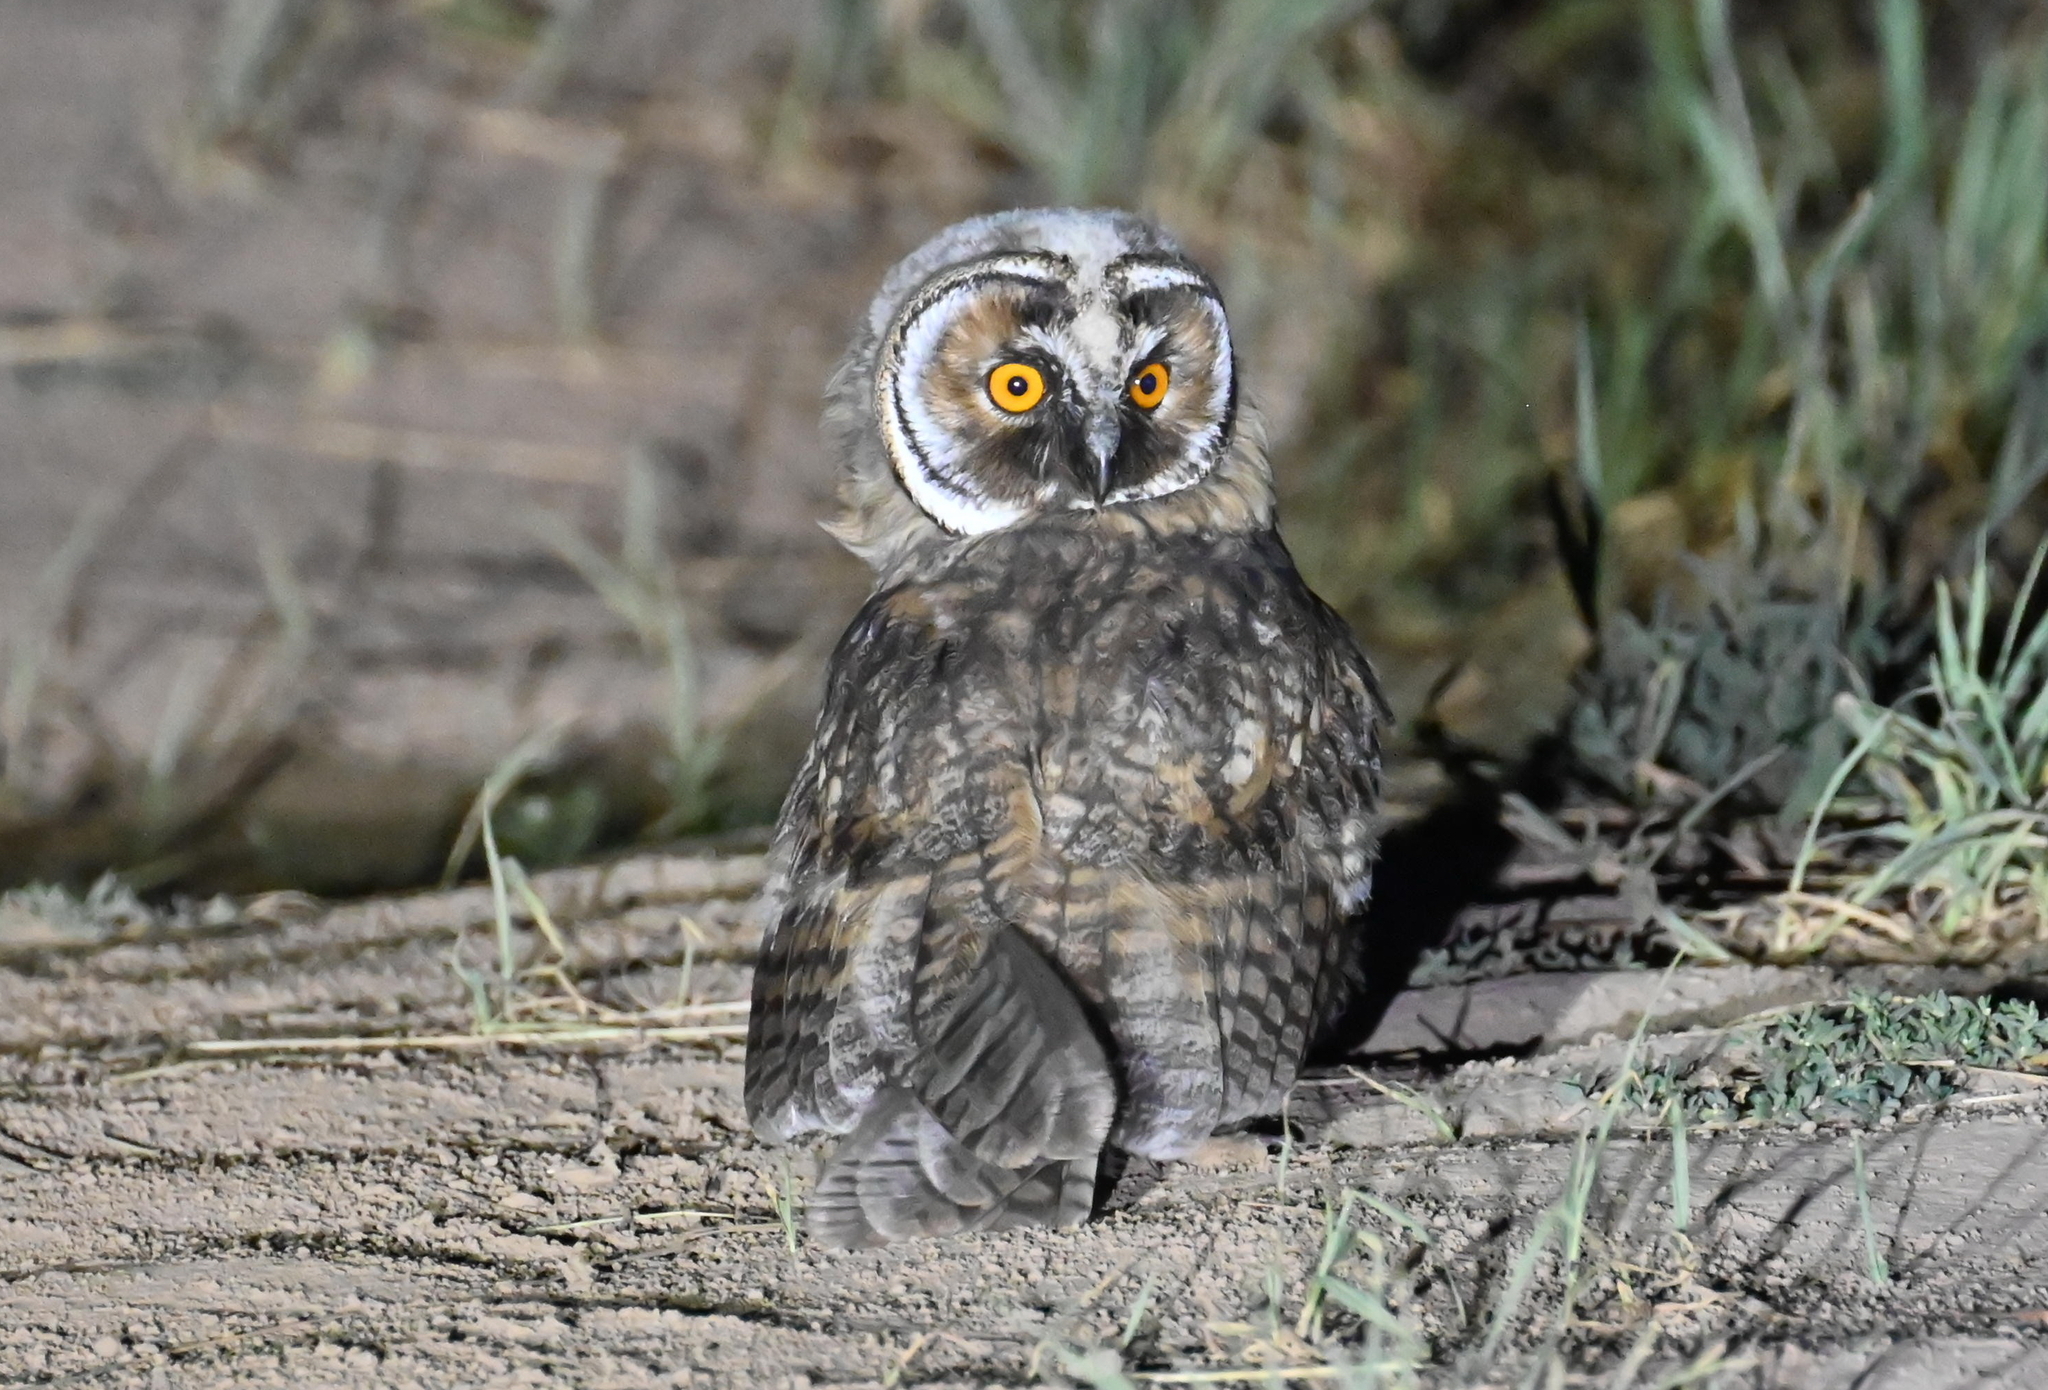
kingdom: Animalia
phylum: Chordata
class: Aves
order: Strigiformes
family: Strigidae
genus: Asio
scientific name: Asio otus
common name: Long-eared owl
